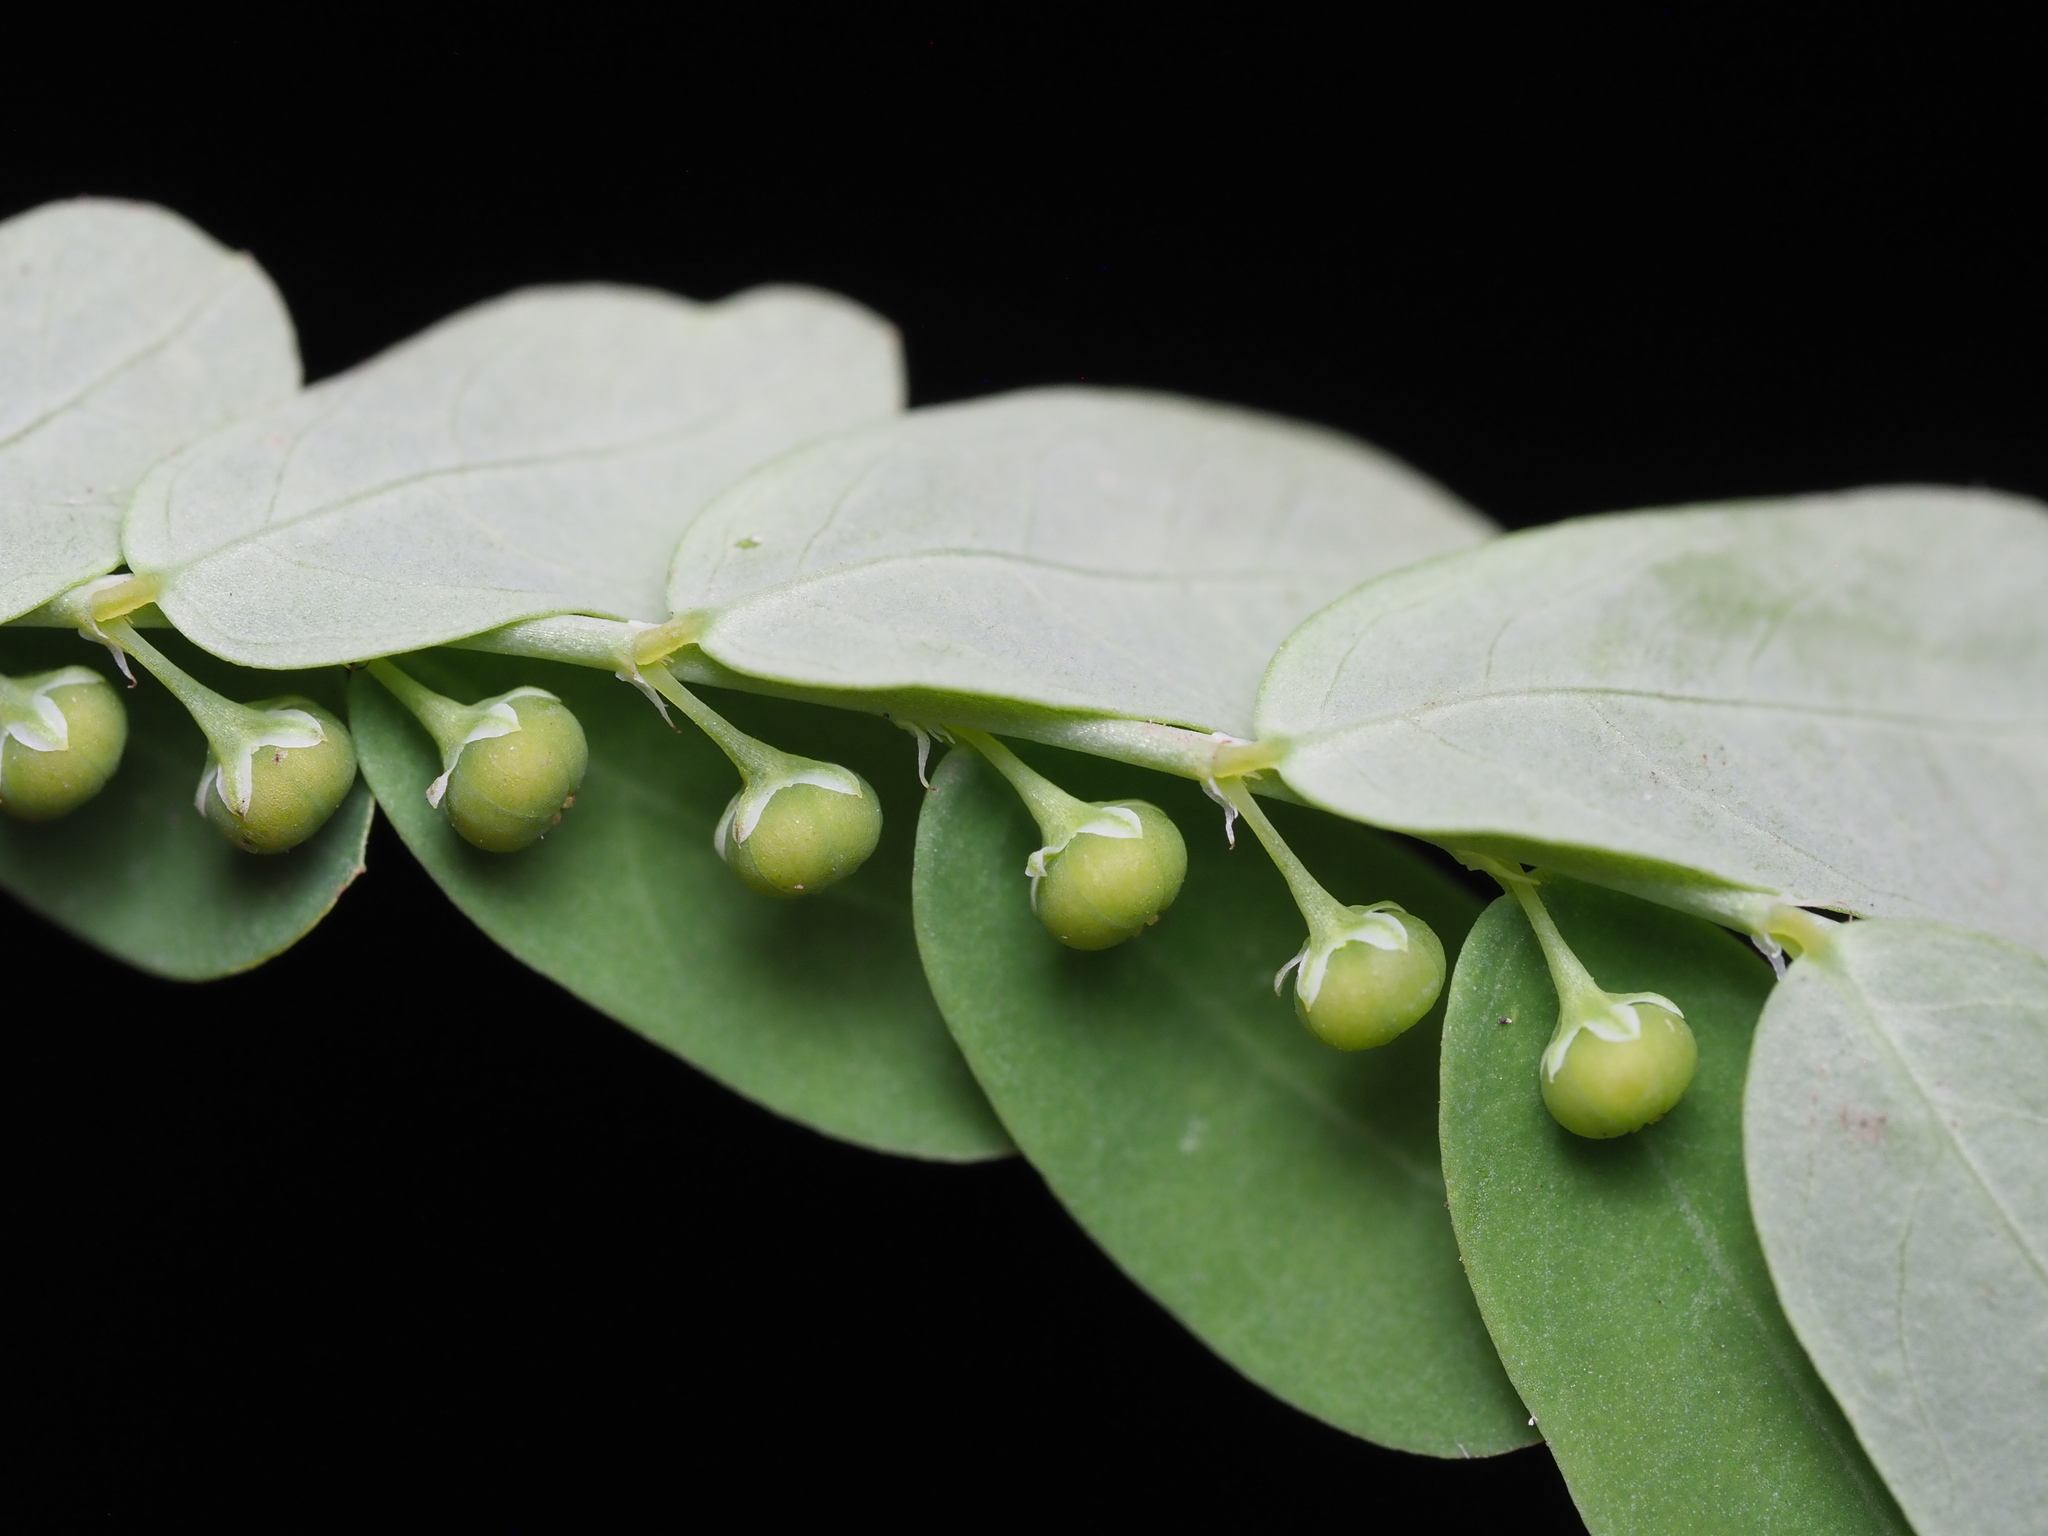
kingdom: Plantae
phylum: Tracheophyta
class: Magnoliopsida
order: Malpighiales
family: Phyllanthaceae
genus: Phyllanthus
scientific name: Phyllanthus amarus
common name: Carry me seed
